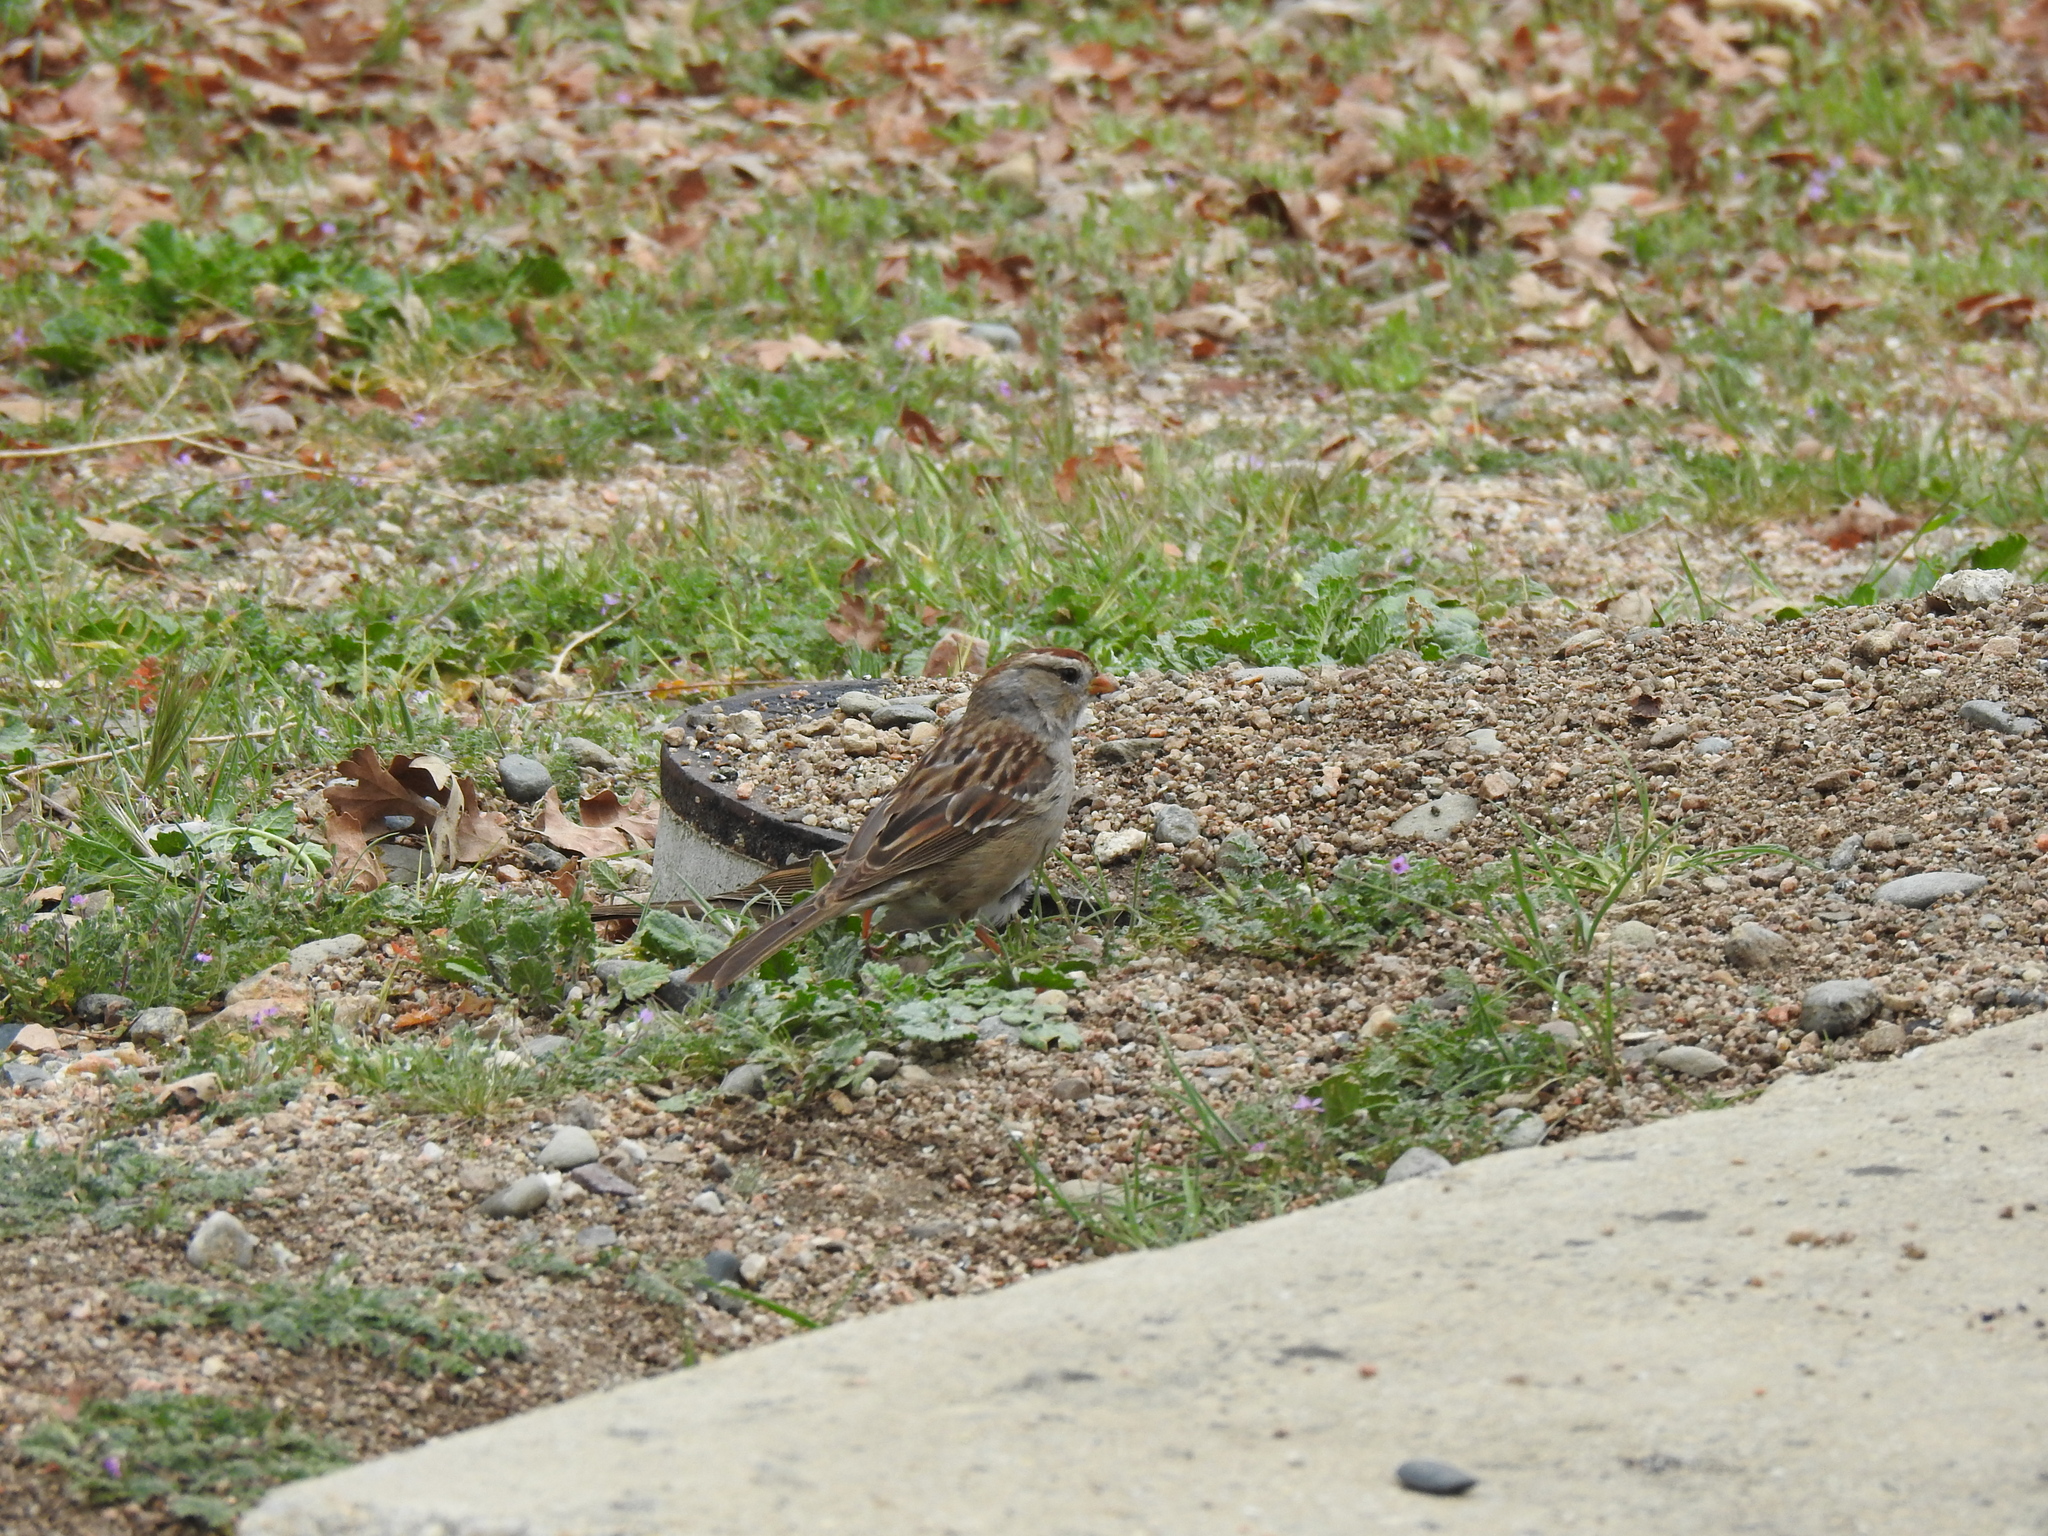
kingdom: Animalia
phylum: Chordata
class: Aves
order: Passeriformes
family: Passerellidae
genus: Zonotrichia
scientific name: Zonotrichia leucophrys
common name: White-crowned sparrow
